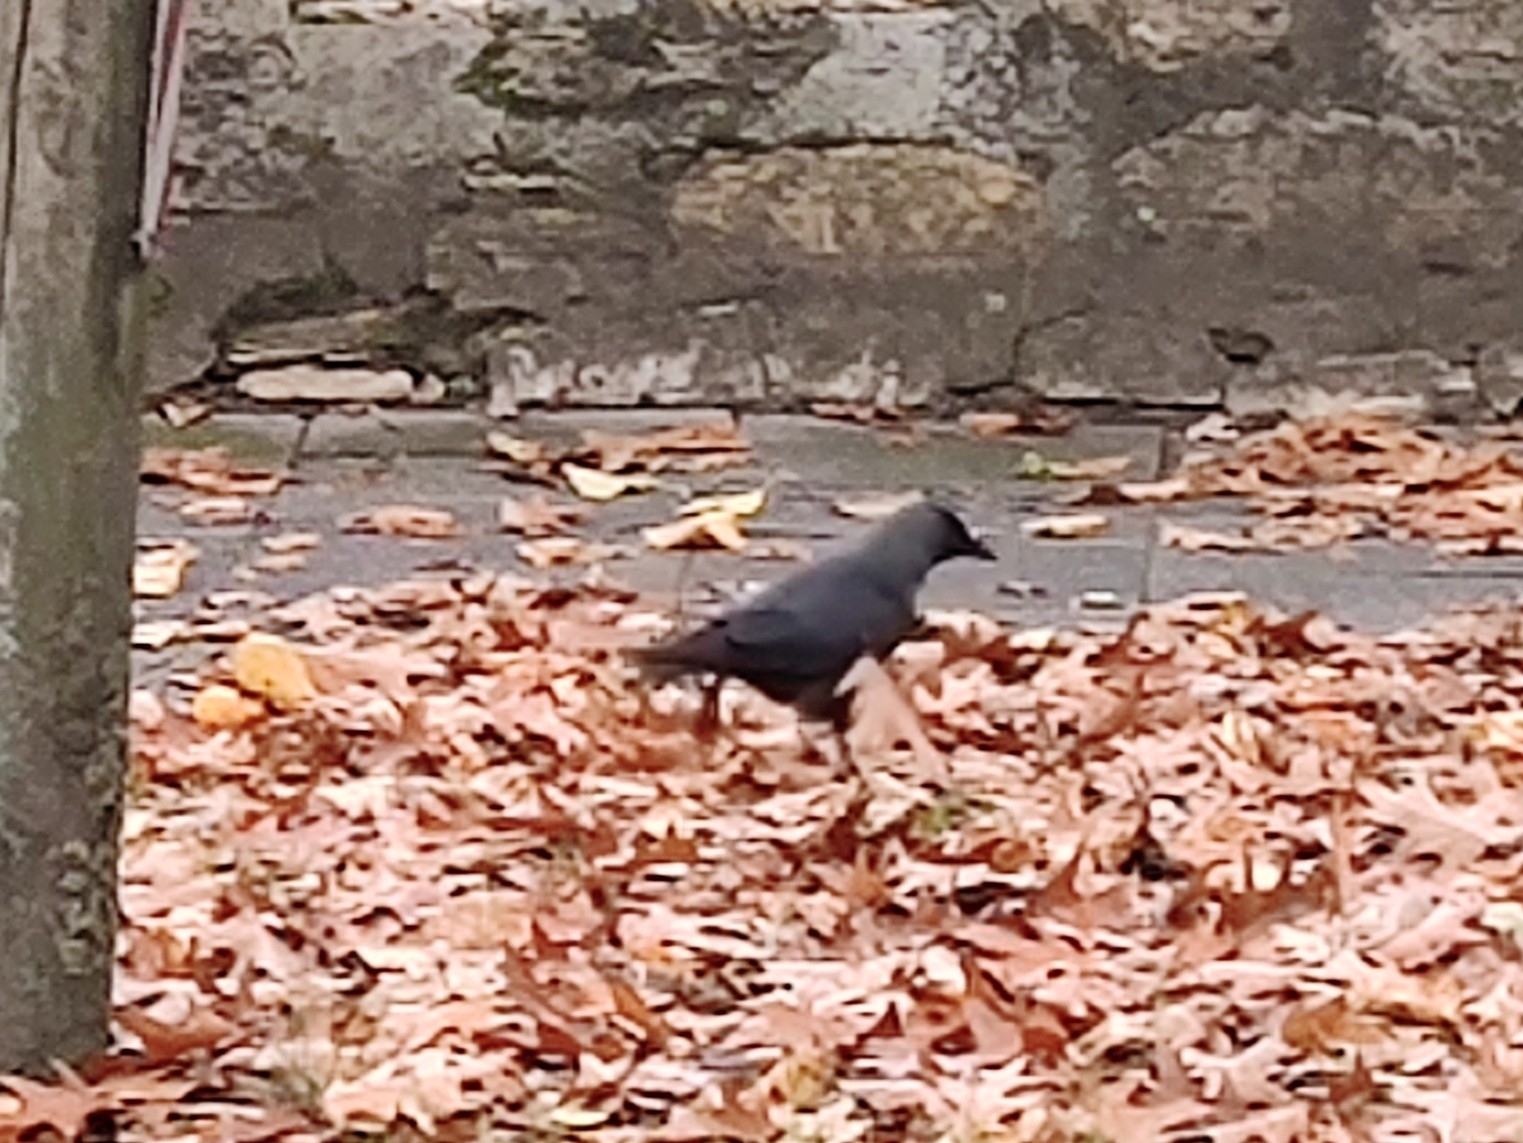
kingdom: Animalia
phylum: Chordata
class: Aves
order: Passeriformes
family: Corvidae
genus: Coloeus
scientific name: Coloeus monedula
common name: Western jackdaw
